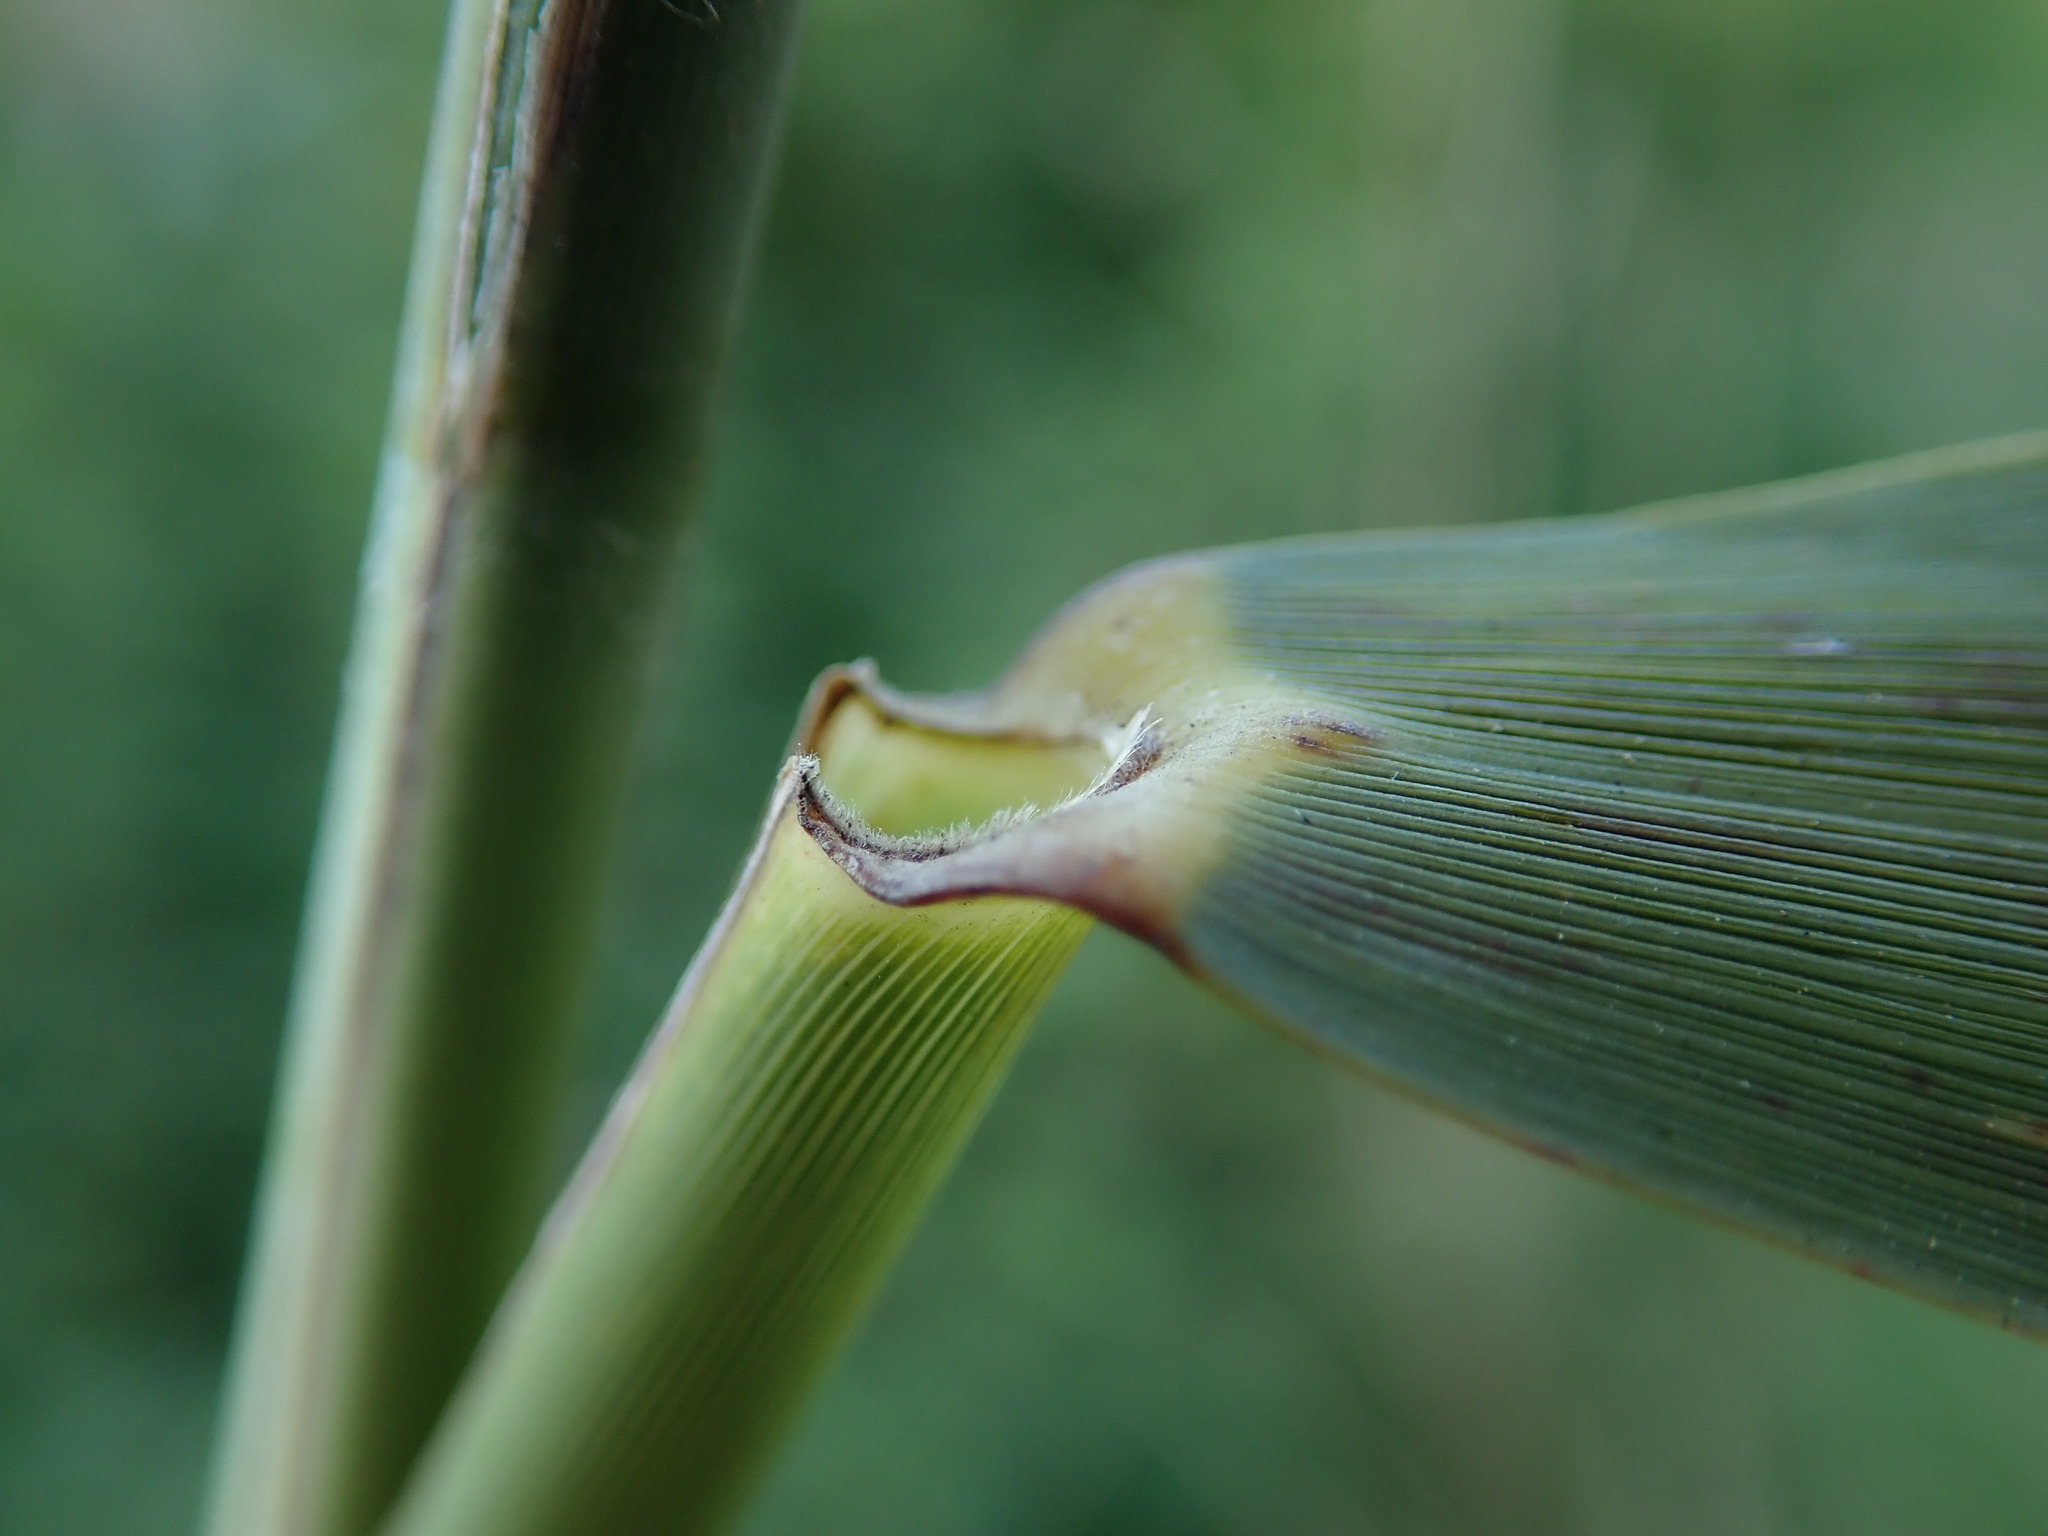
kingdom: Plantae
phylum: Tracheophyta
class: Liliopsida
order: Poales
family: Poaceae
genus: Phragmites
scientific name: Phragmites australis
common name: Common reed
